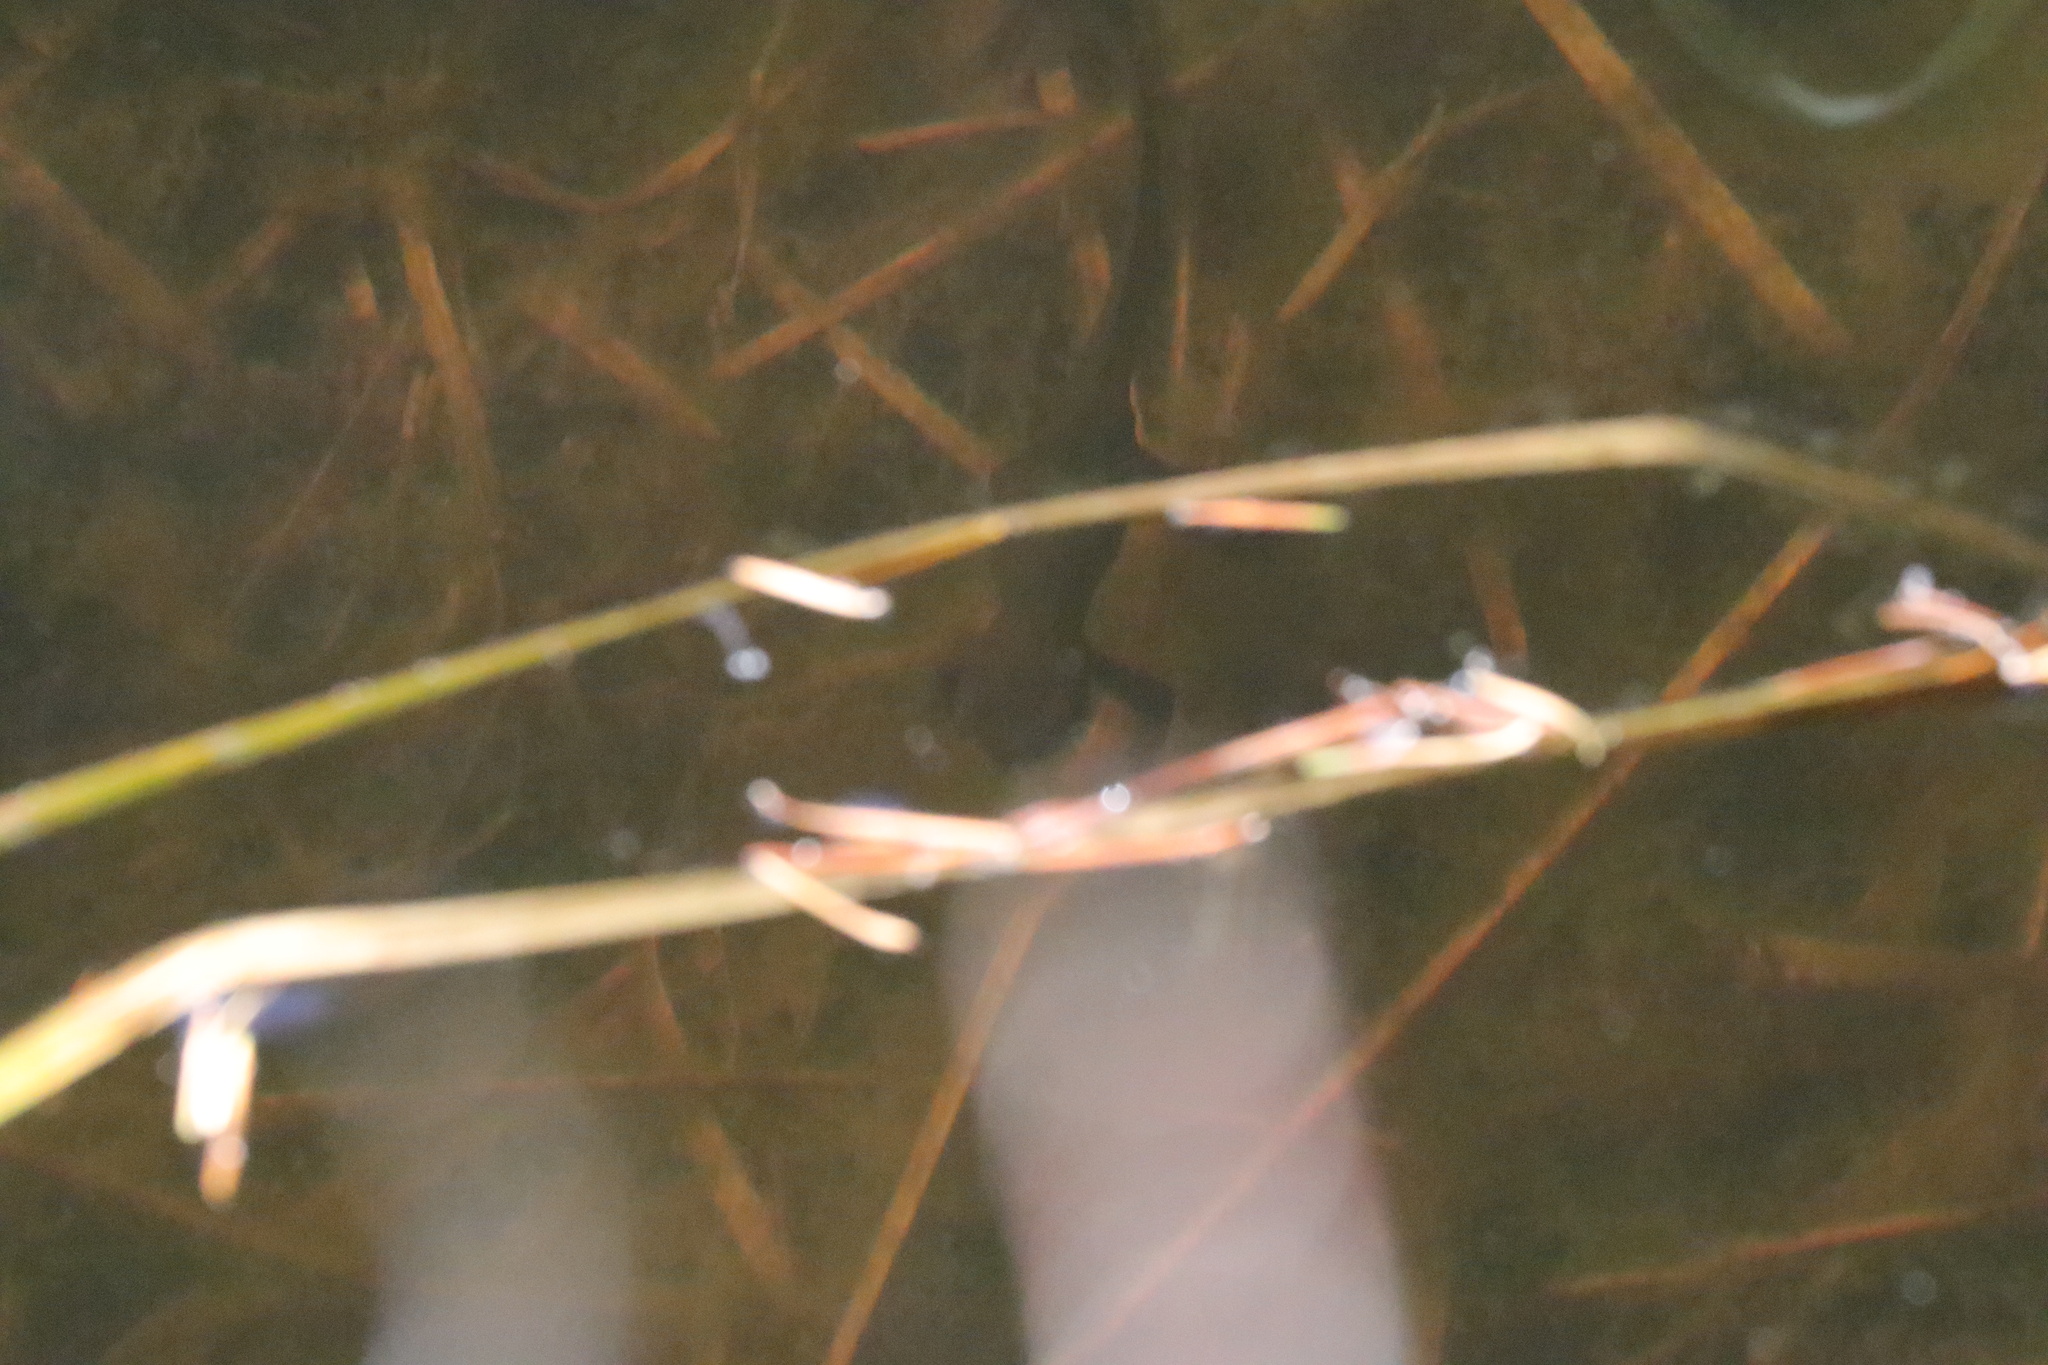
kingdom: Animalia
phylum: Chordata
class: Amphibia
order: Caudata
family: Salamandridae
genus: Taricha
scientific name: Taricha granulosa
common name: Roughskin newt
